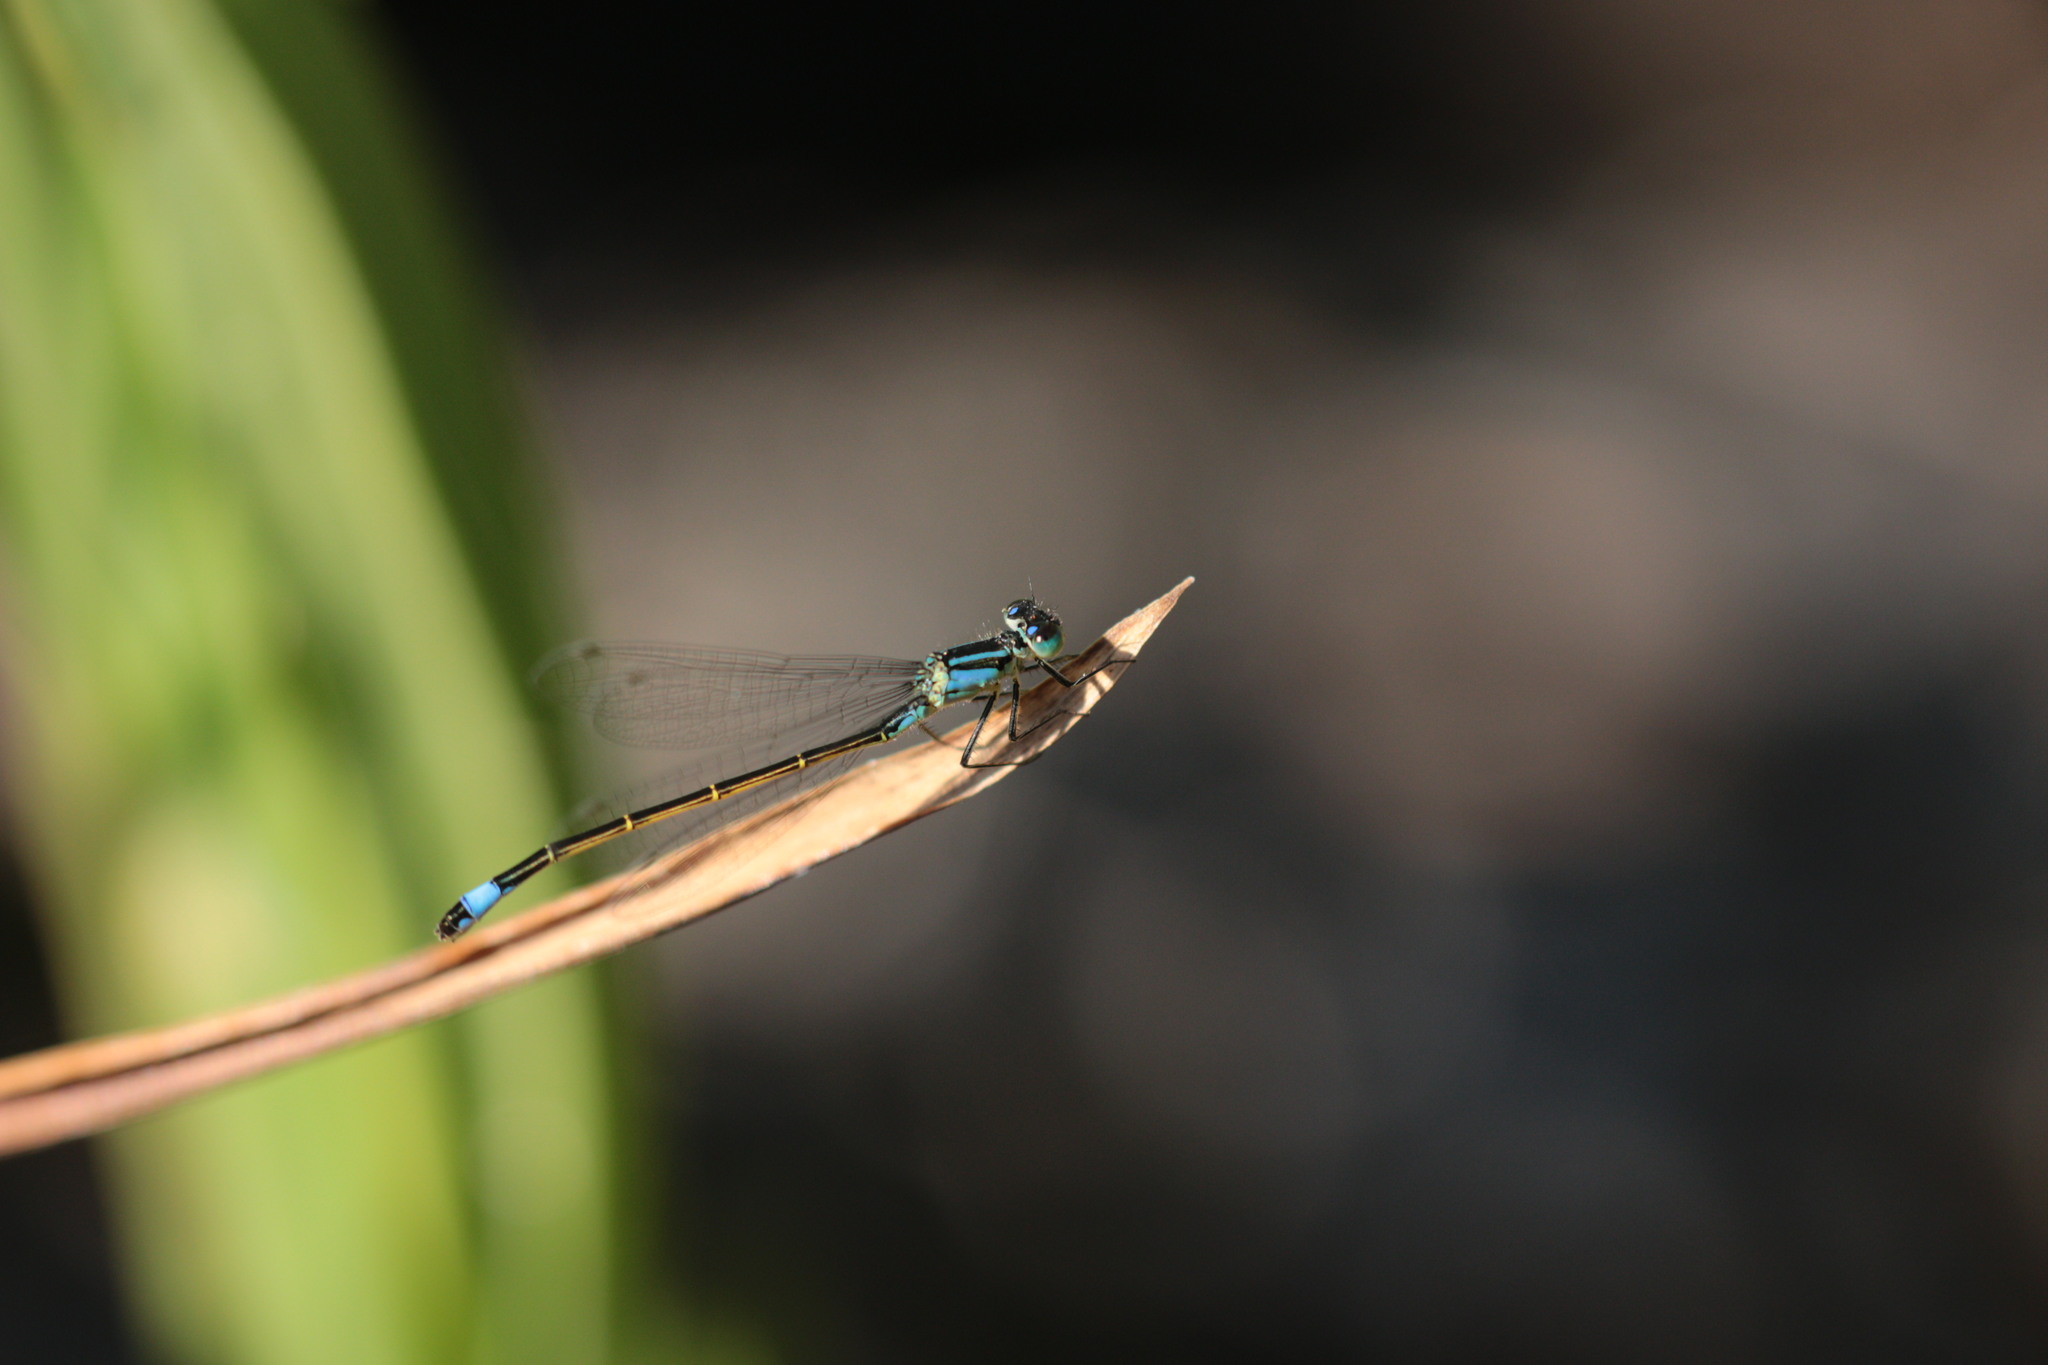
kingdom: Animalia
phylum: Arthropoda
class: Insecta
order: Odonata
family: Coenagrionidae
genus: Ischnura
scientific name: Ischnura elegans
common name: Blue-tailed damselfly
